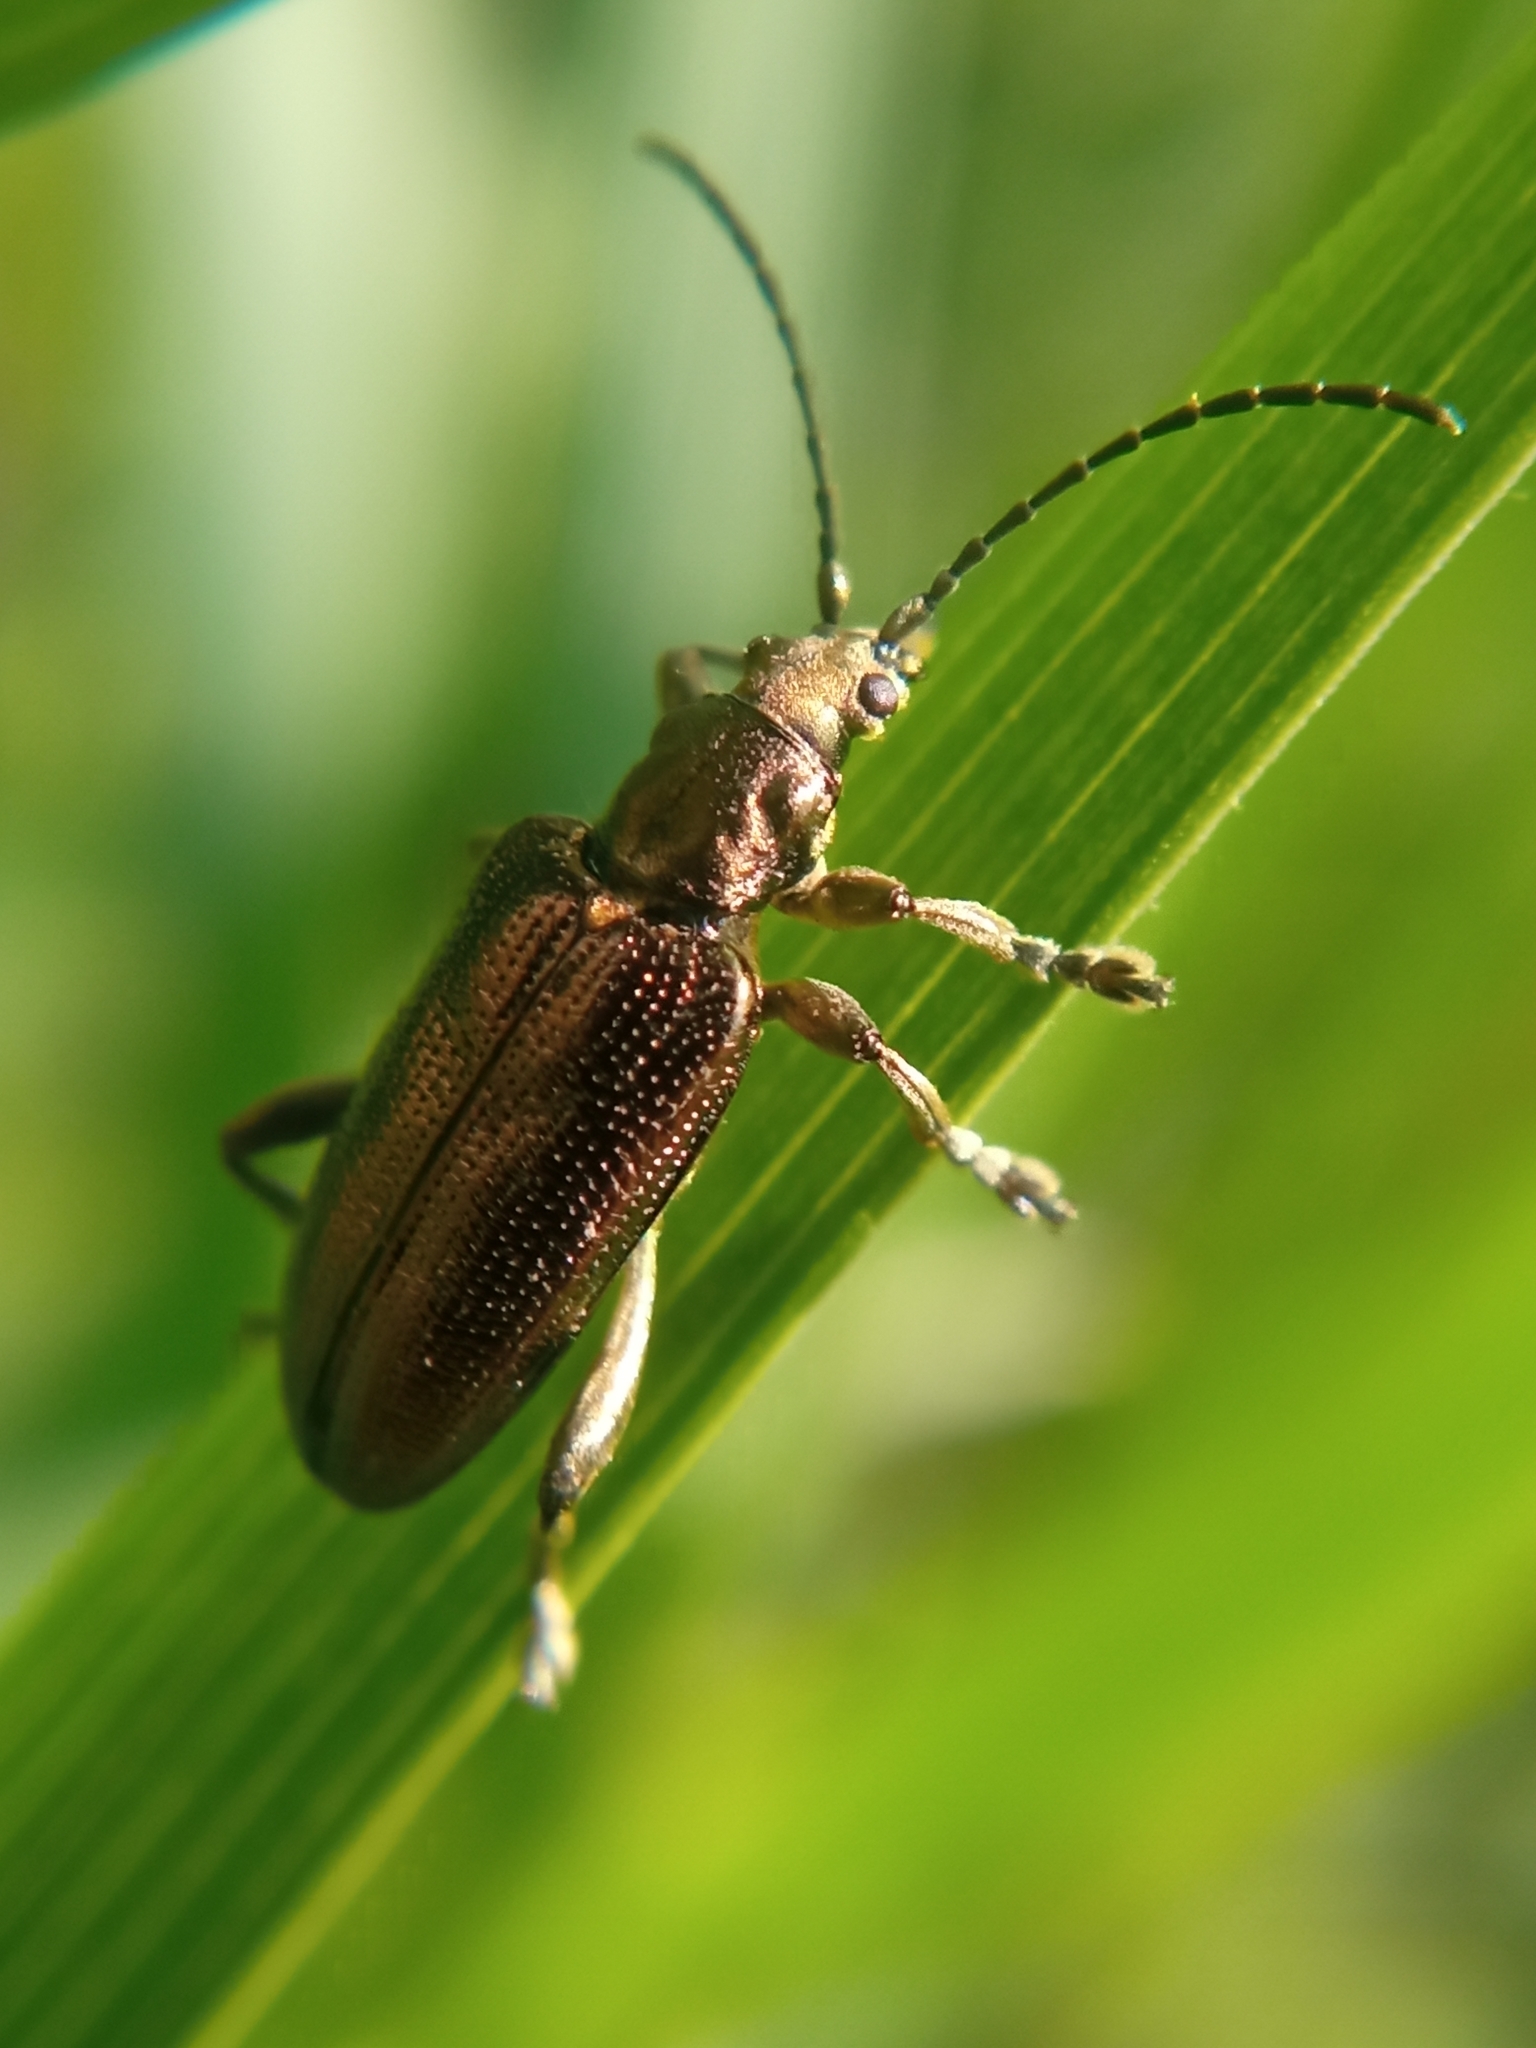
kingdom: Animalia
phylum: Arthropoda
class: Insecta
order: Coleoptera
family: Chrysomelidae
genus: Plateumaris
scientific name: Plateumaris sericea
